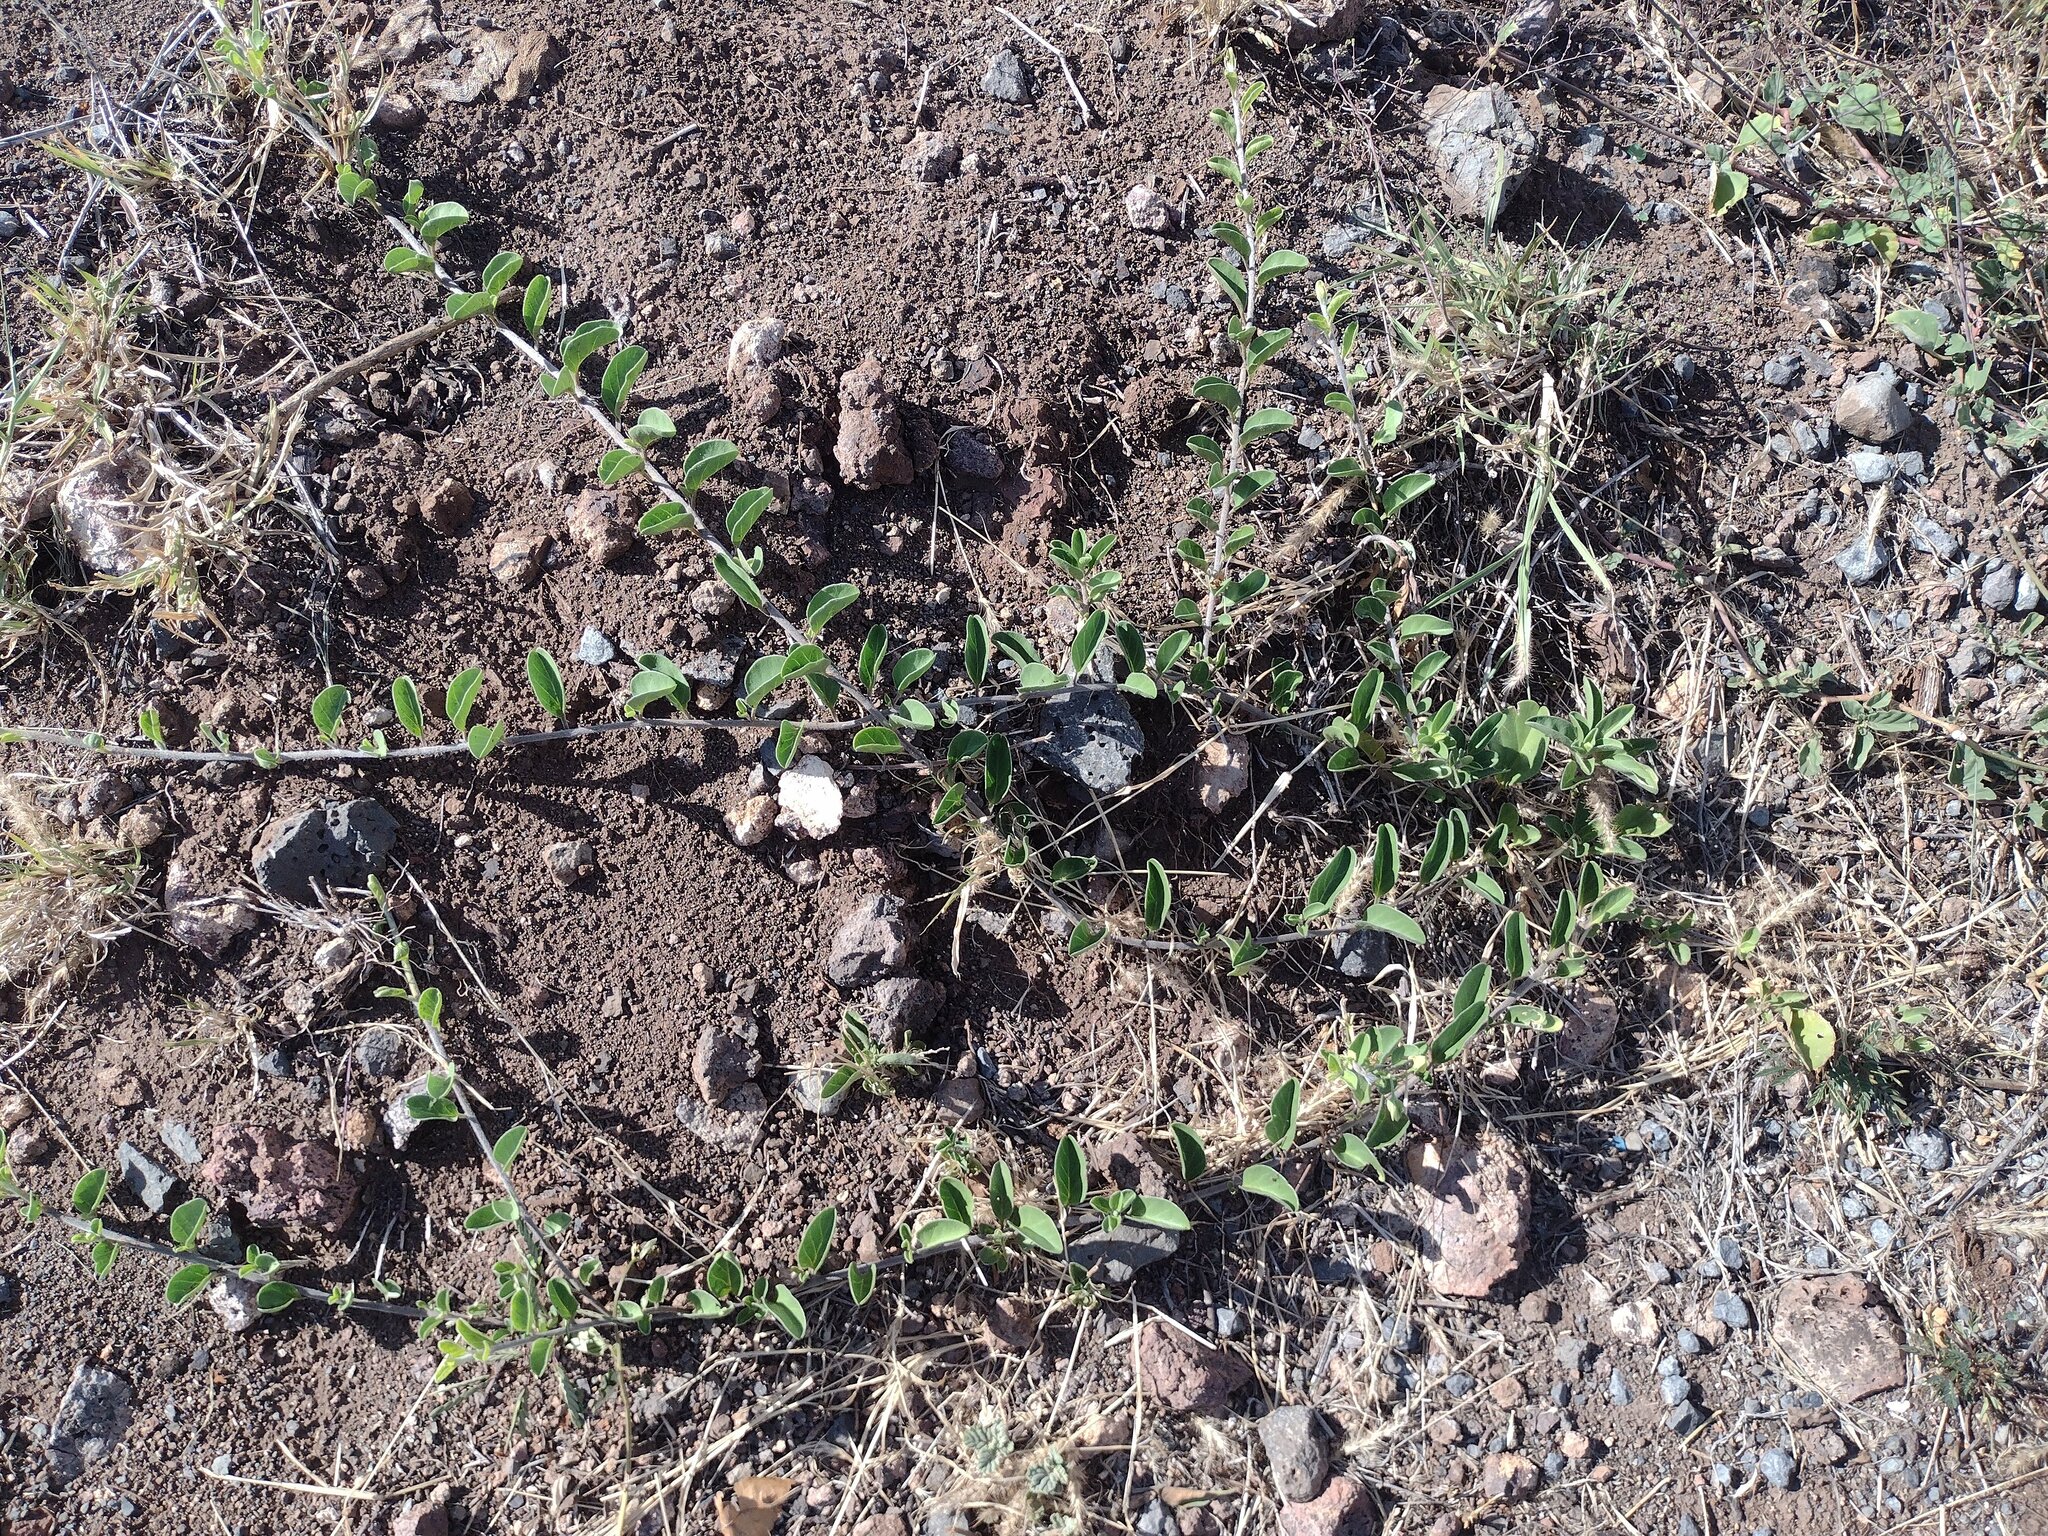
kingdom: Plantae
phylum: Tracheophyta
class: Magnoliopsida
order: Solanales
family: Convolvulaceae
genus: Jacquemontia
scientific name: Jacquemontia sandwicensis
